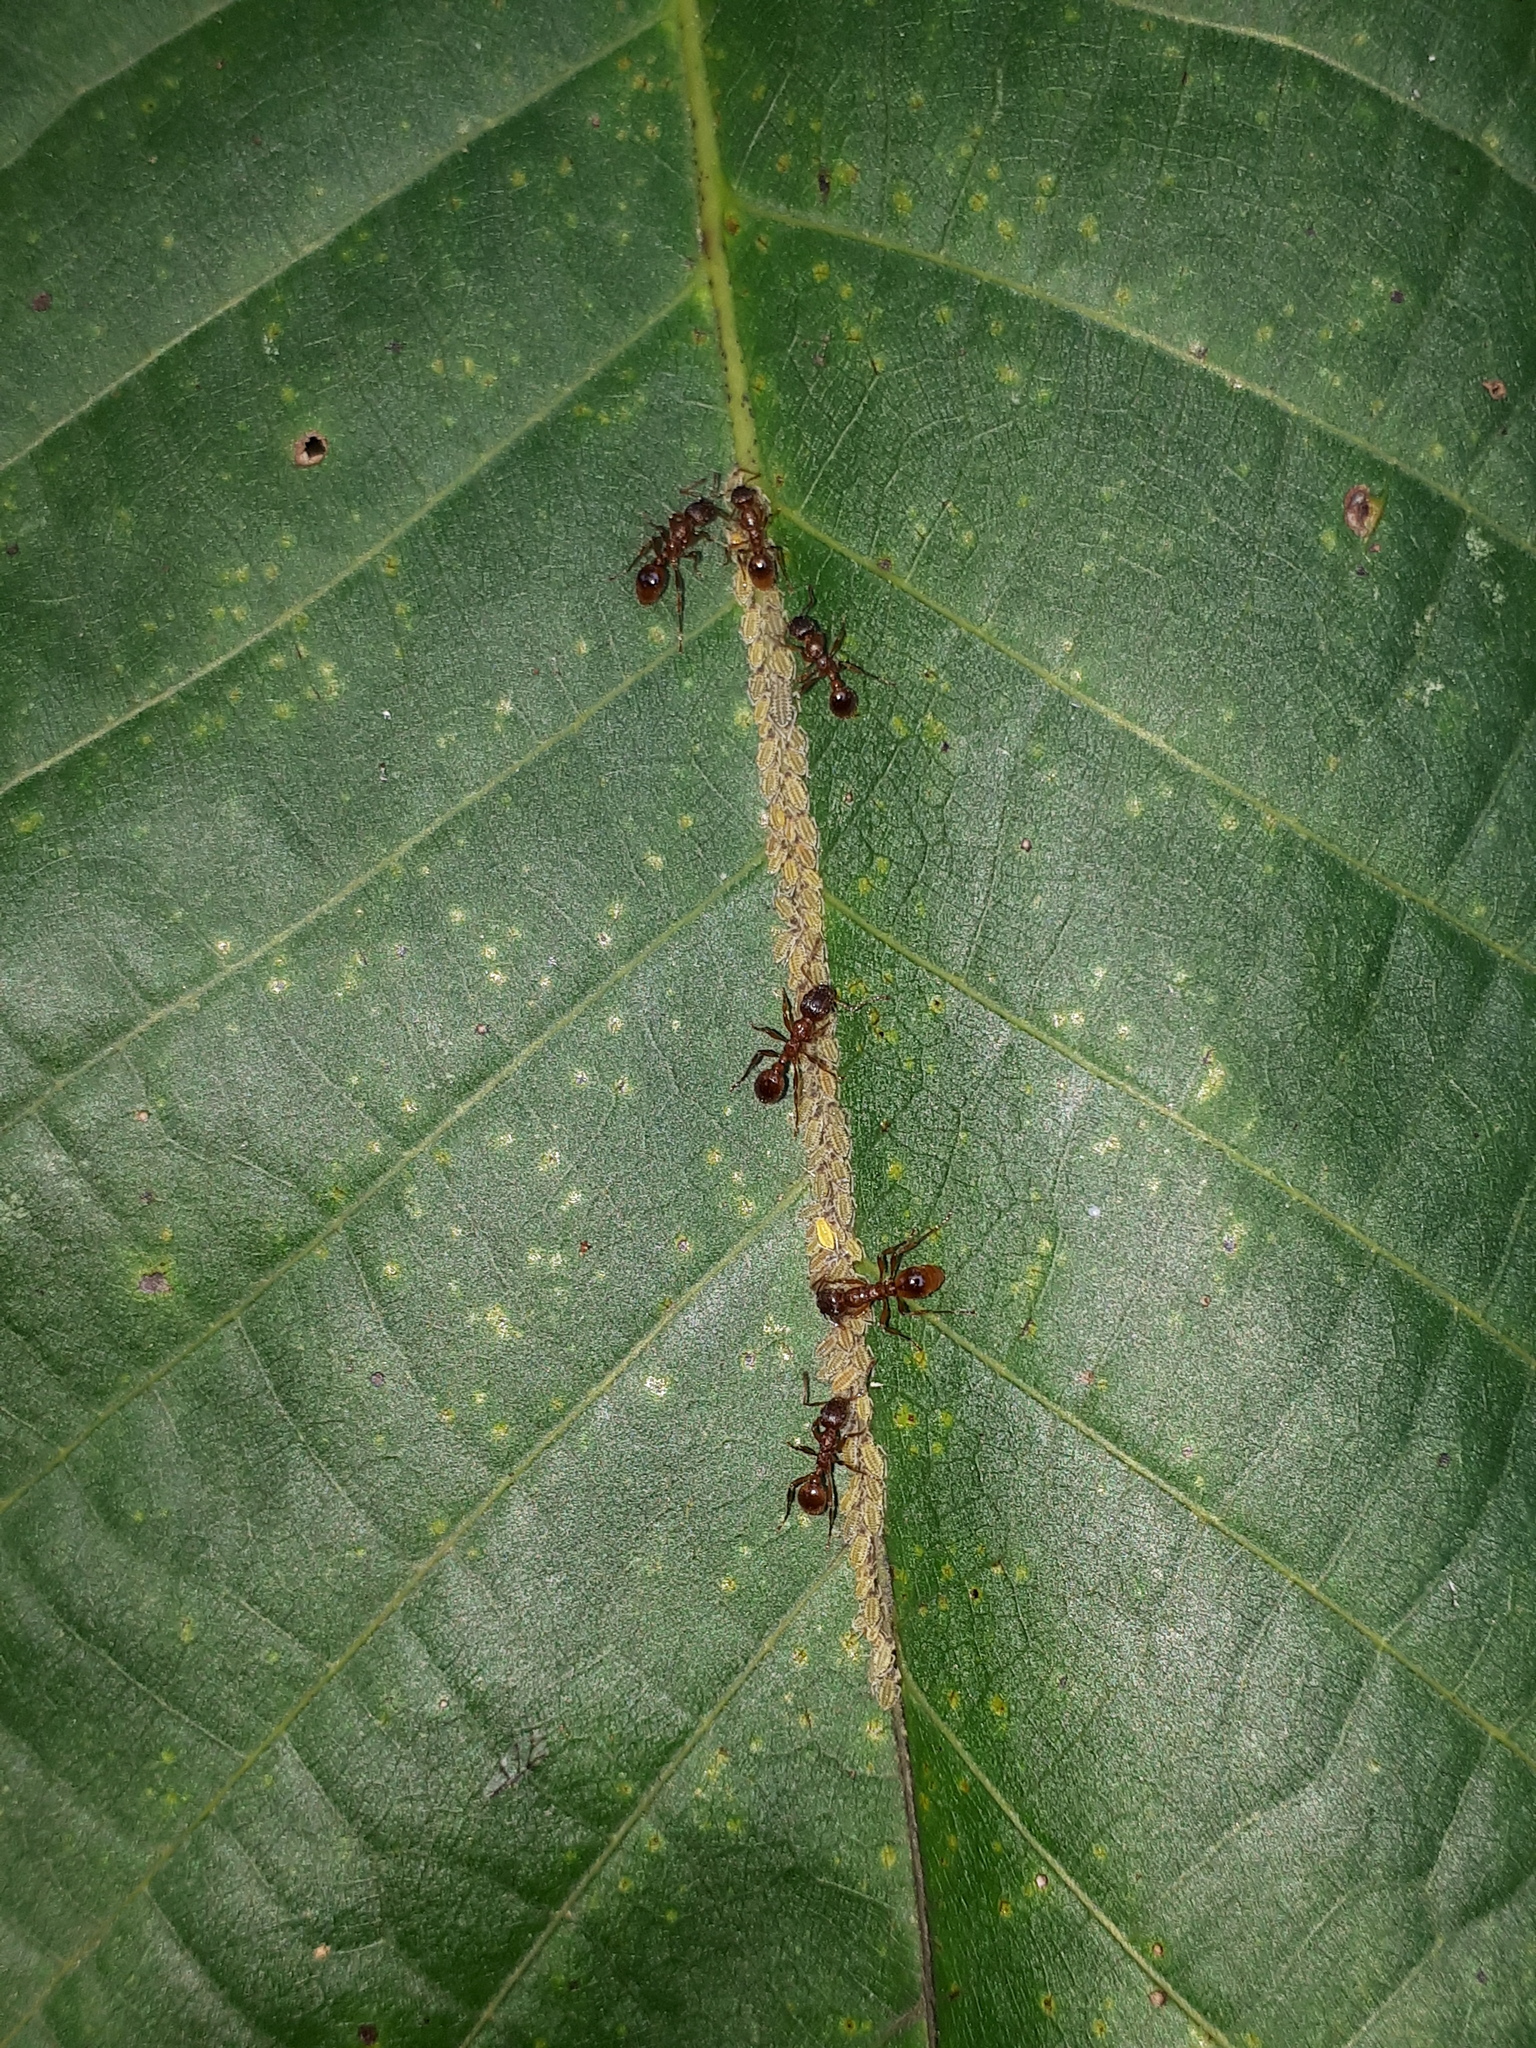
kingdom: Animalia
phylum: Arthropoda
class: Insecta
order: Hemiptera
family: Aphididae
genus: Panaphis
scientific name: Panaphis juglandis
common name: Large walnut aphid
